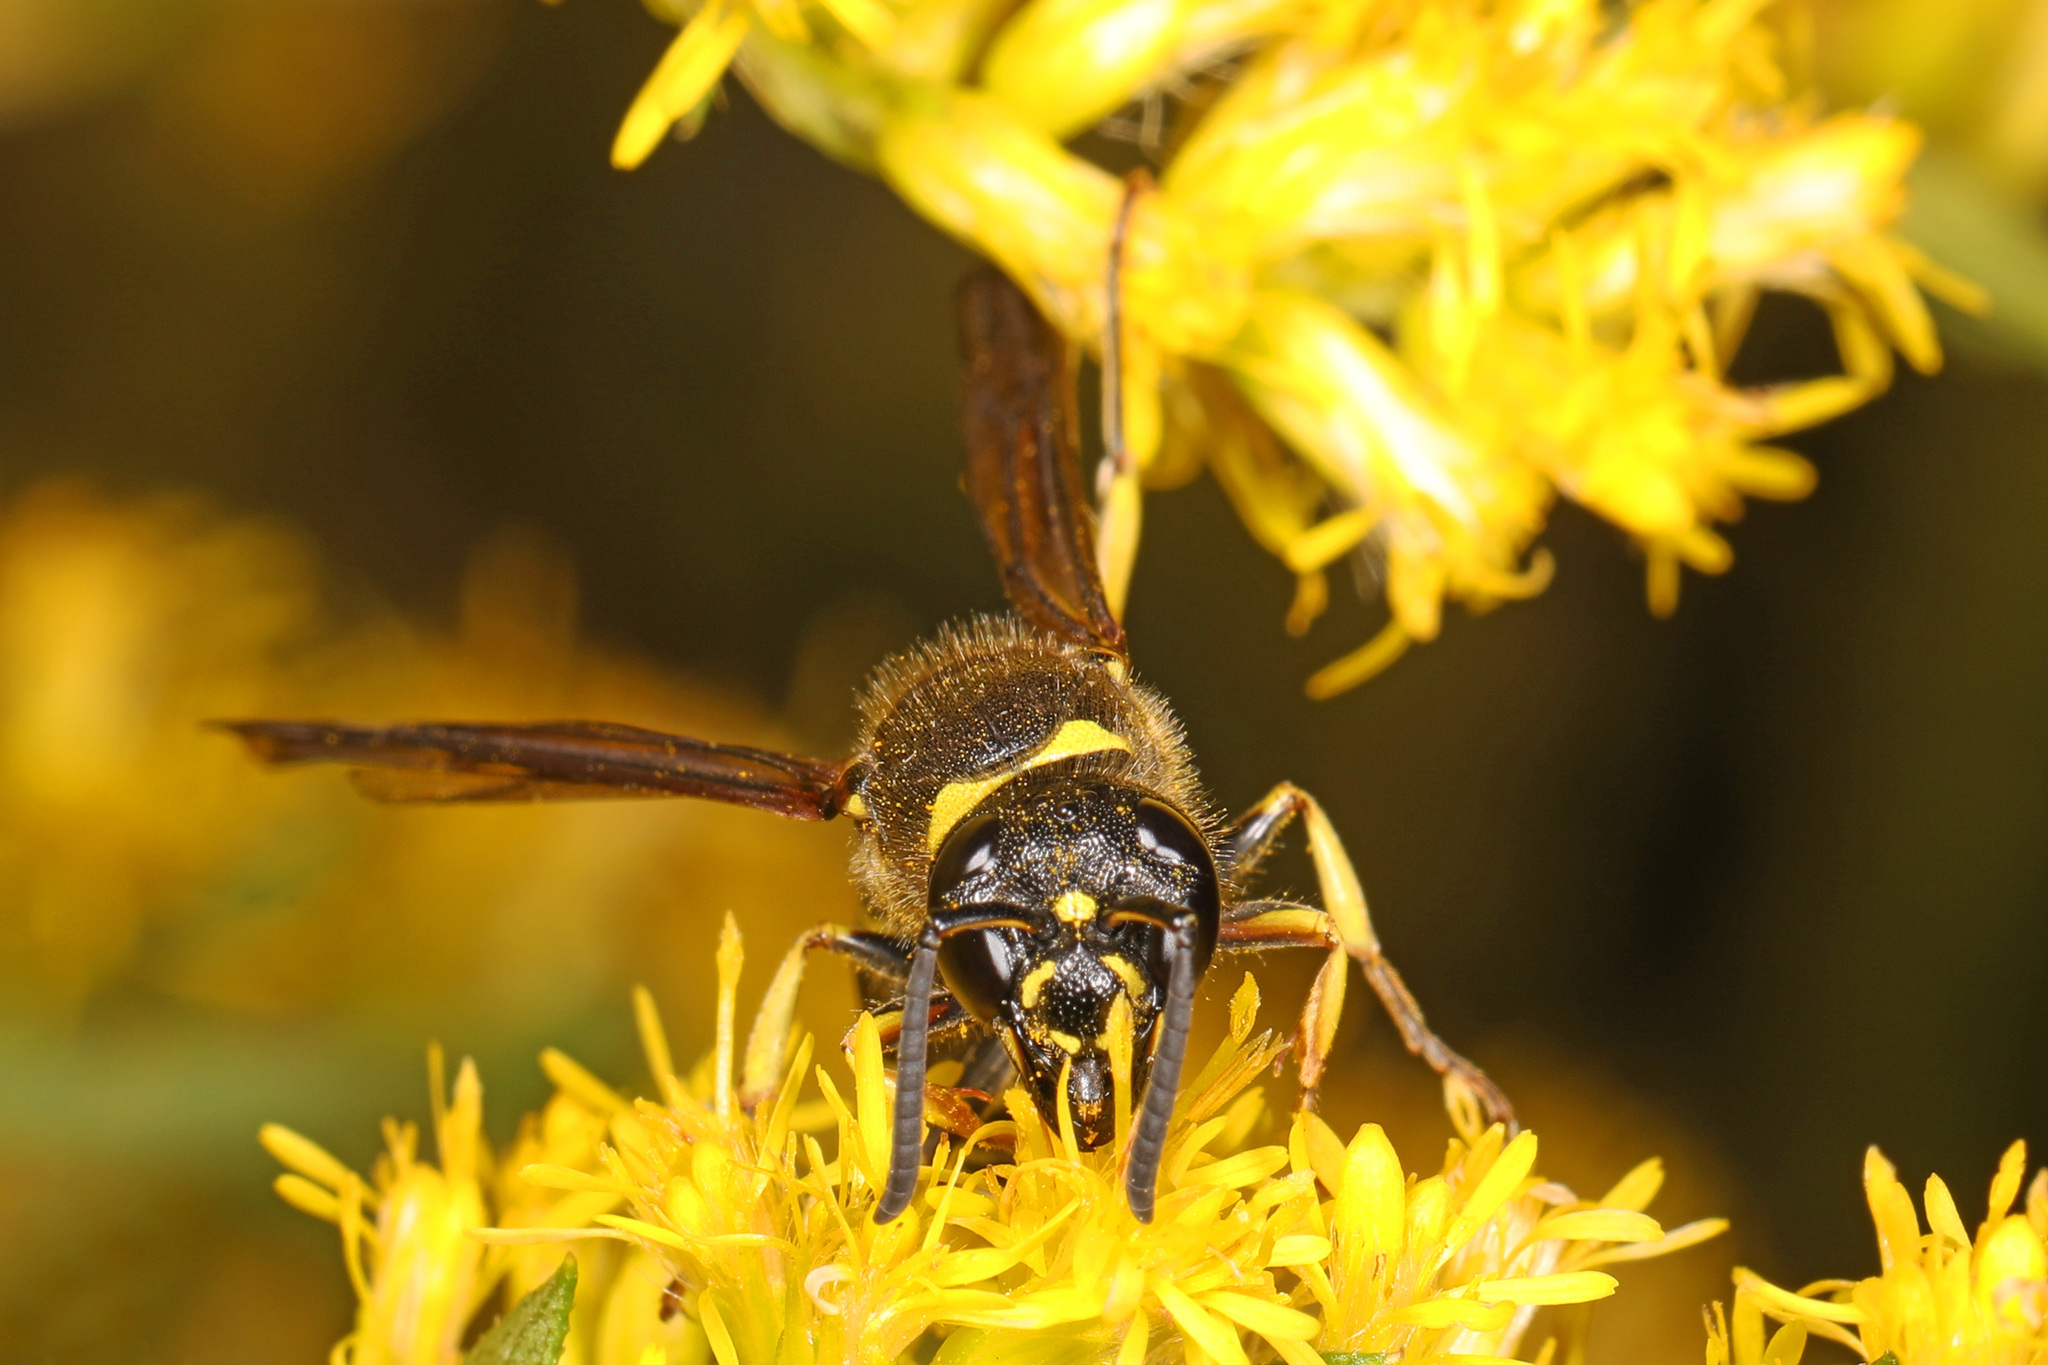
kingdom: Animalia
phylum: Arthropoda
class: Insecta
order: Hymenoptera
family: Vespidae
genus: Ancistrocerus
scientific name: Ancistrocerus
